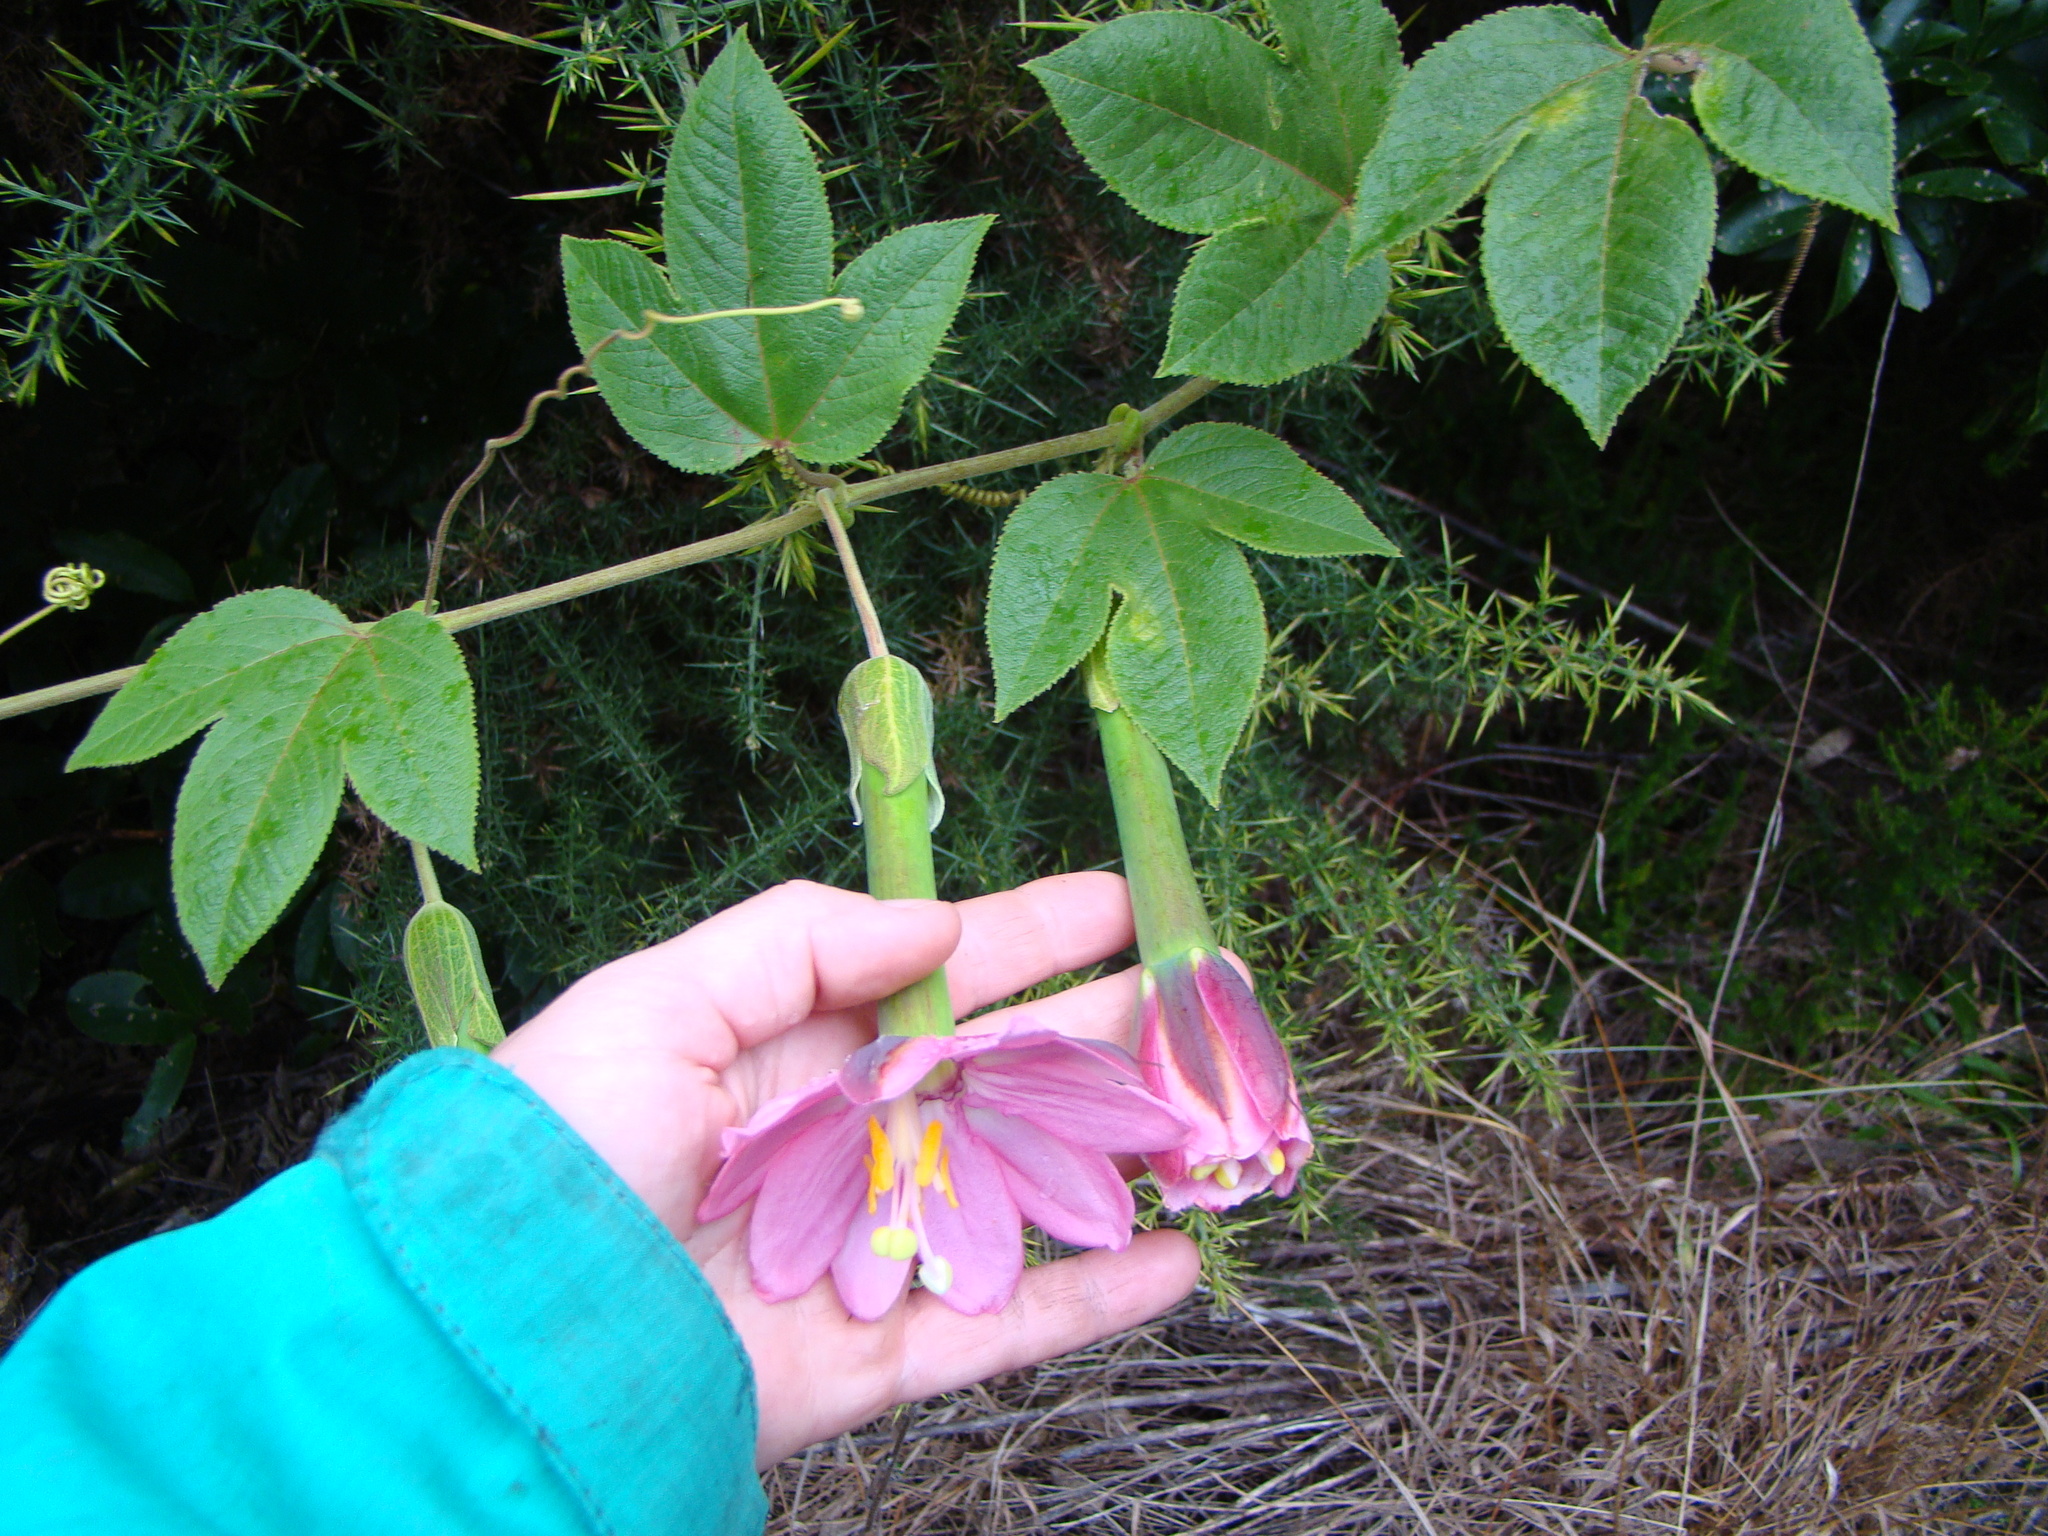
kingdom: Plantae
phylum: Tracheophyta
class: Magnoliopsida
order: Malpighiales
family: Passifloraceae
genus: Passiflora
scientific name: Passiflora tripartita
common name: Banana poka
